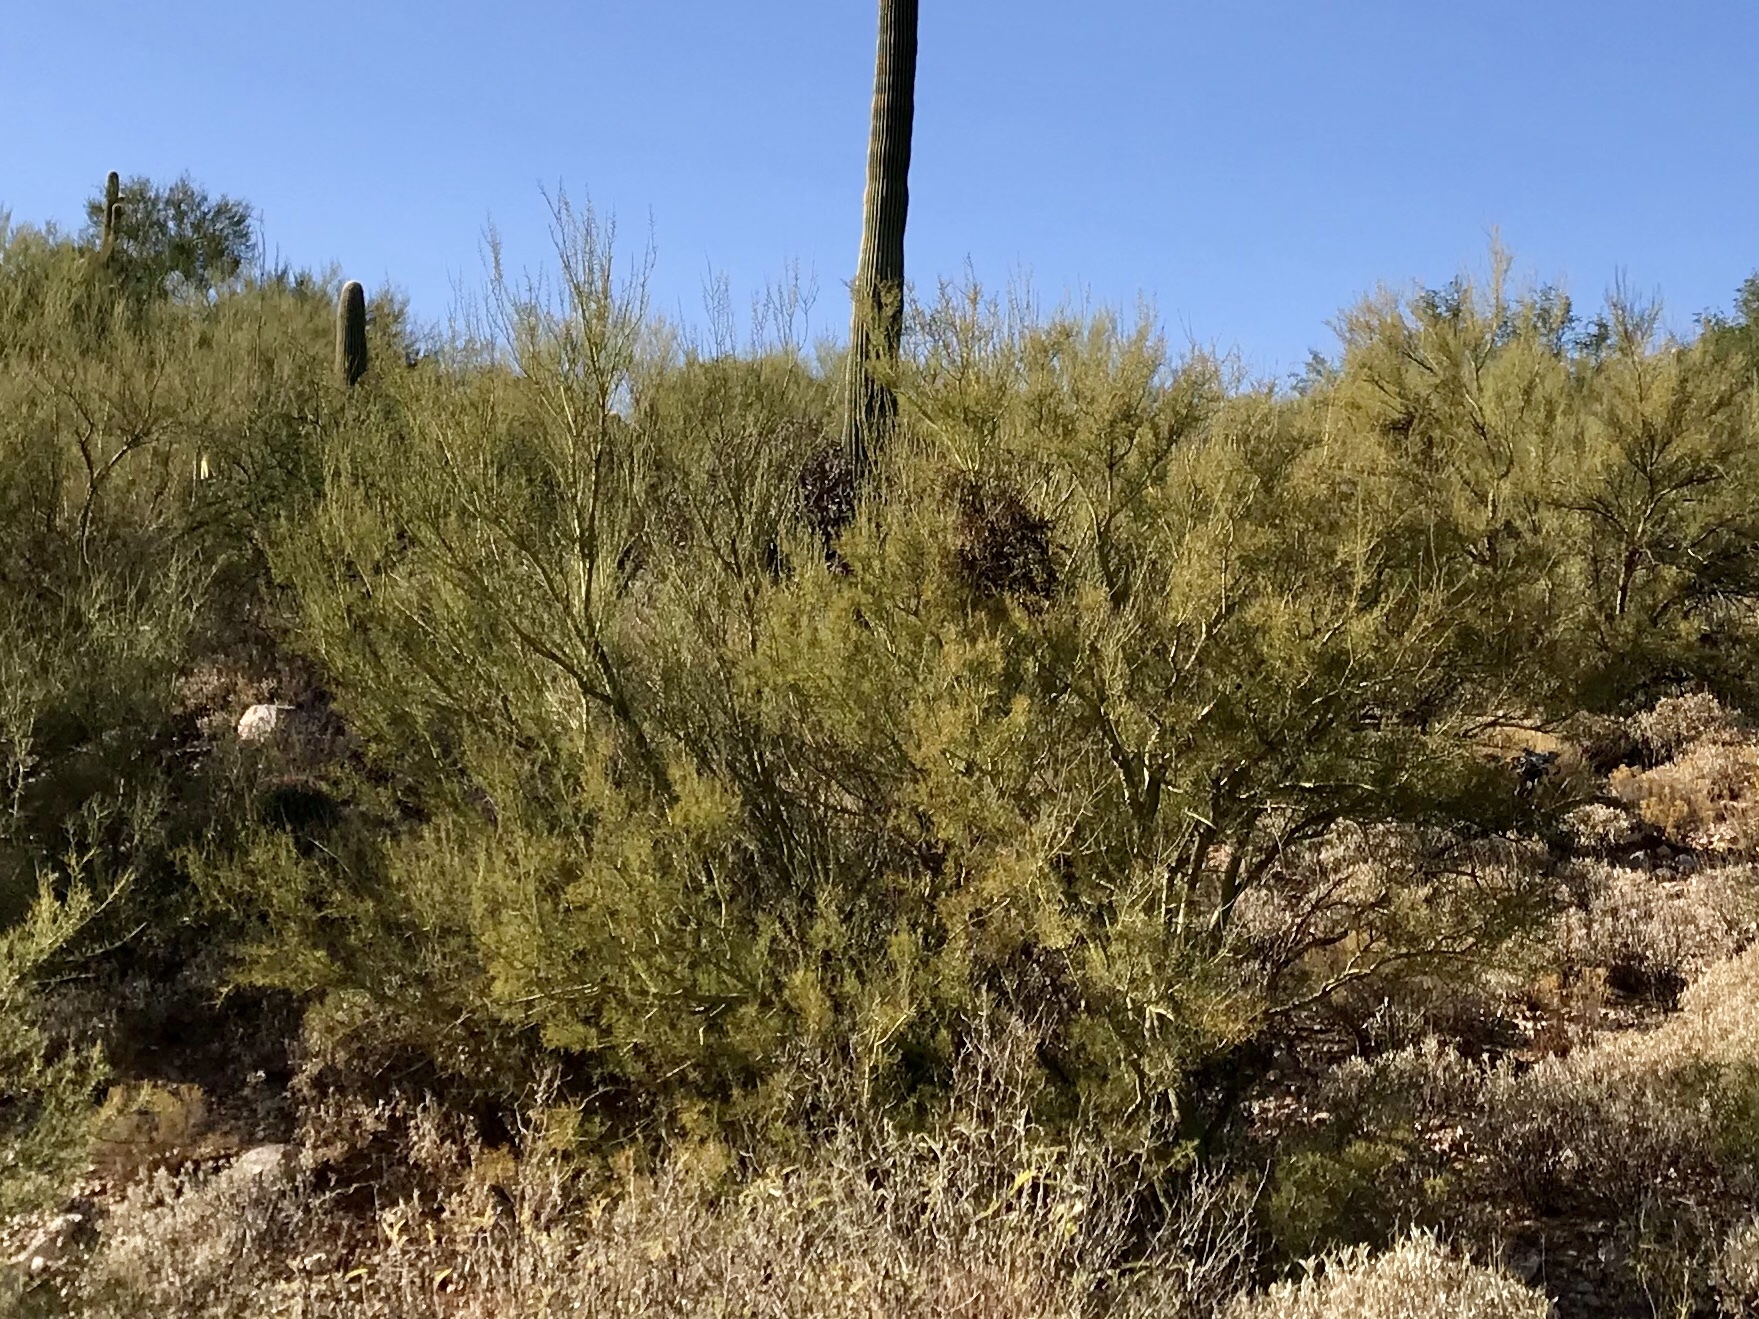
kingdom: Plantae
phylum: Tracheophyta
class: Magnoliopsida
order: Fabales
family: Fabaceae
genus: Parkinsonia
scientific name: Parkinsonia microphylla
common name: Yellow paloverde
